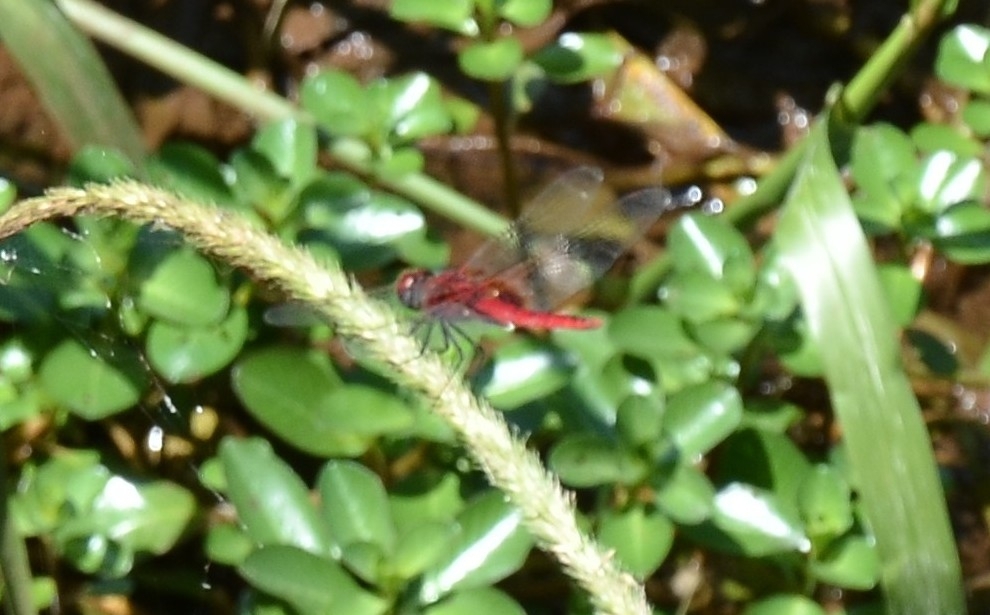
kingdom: Animalia
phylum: Arthropoda
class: Insecta
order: Odonata
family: Libellulidae
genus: Urothemis
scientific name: Urothemis signata
